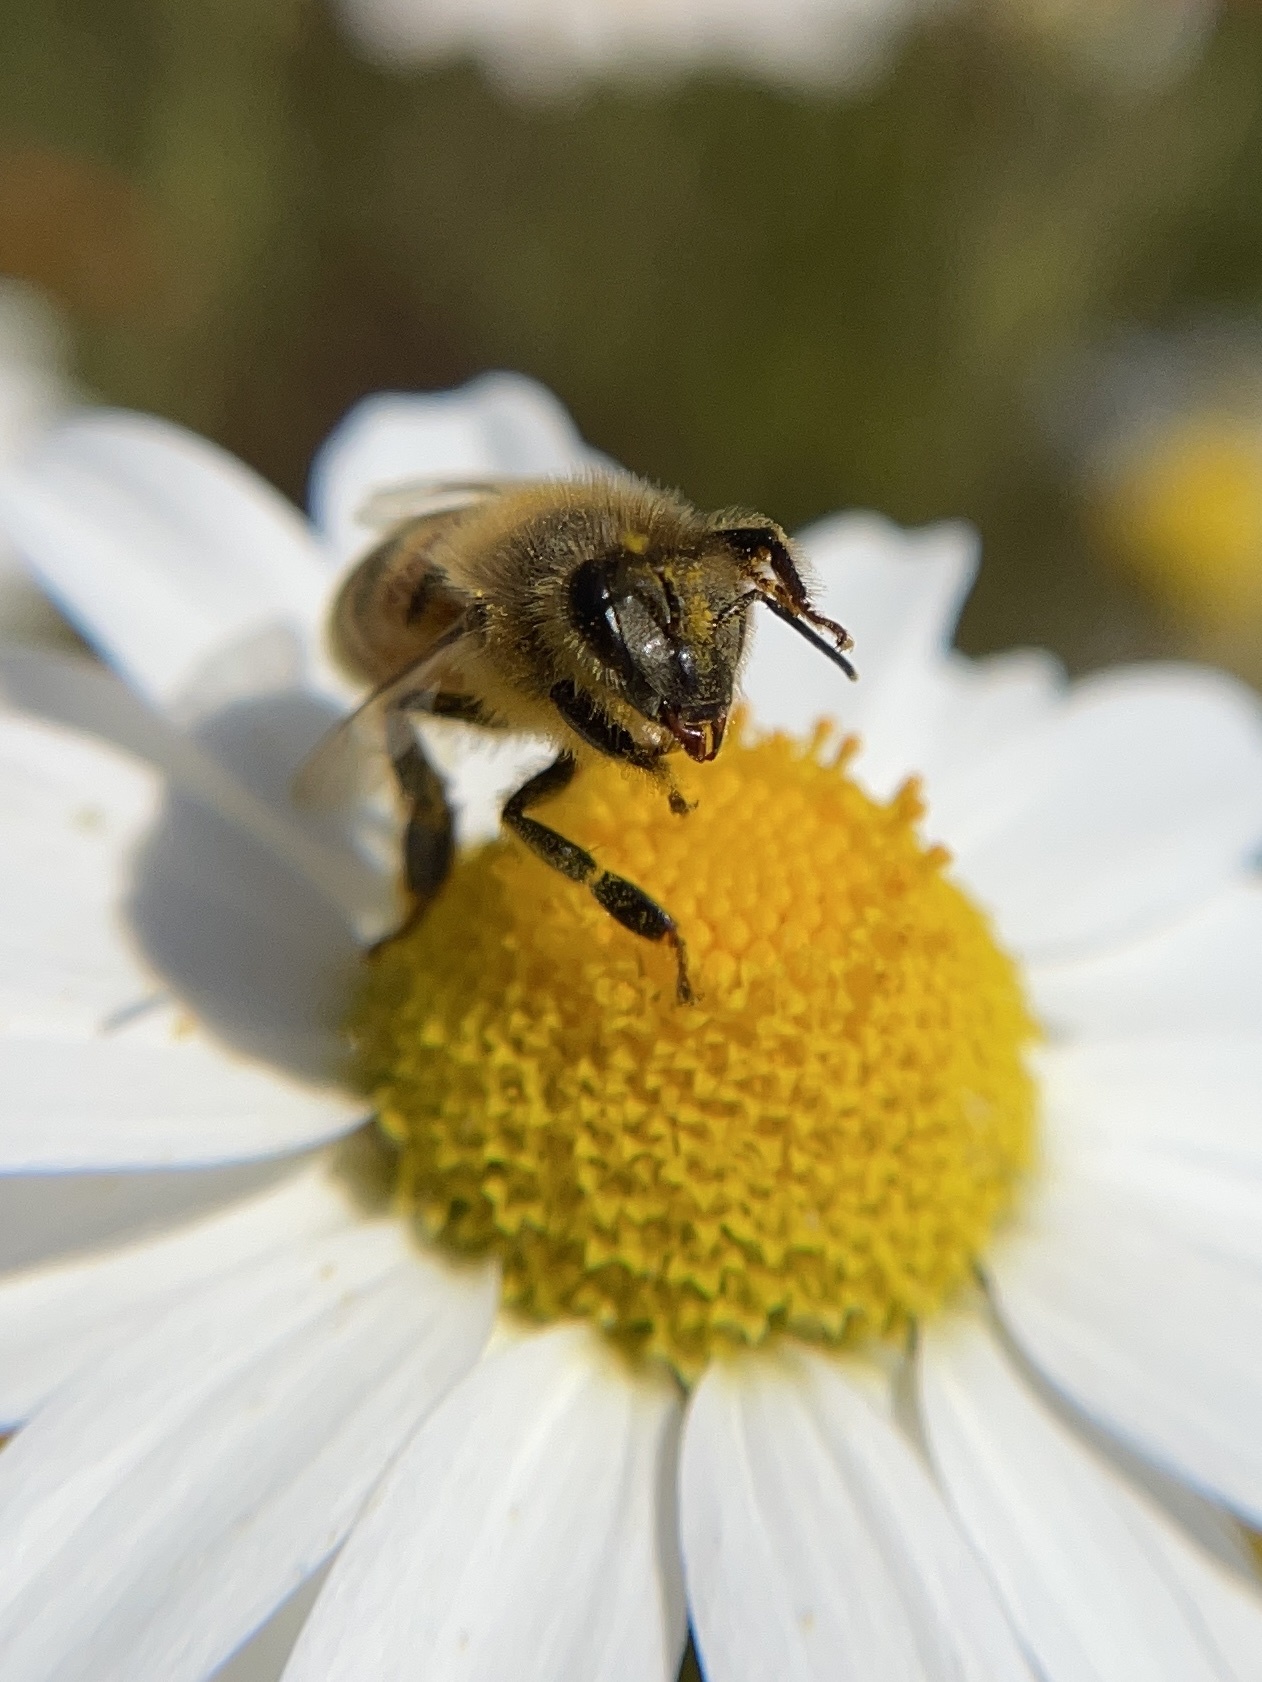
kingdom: Animalia
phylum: Arthropoda
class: Insecta
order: Hymenoptera
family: Apidae
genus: Apis
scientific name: Apis mellifera
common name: Honey bee
